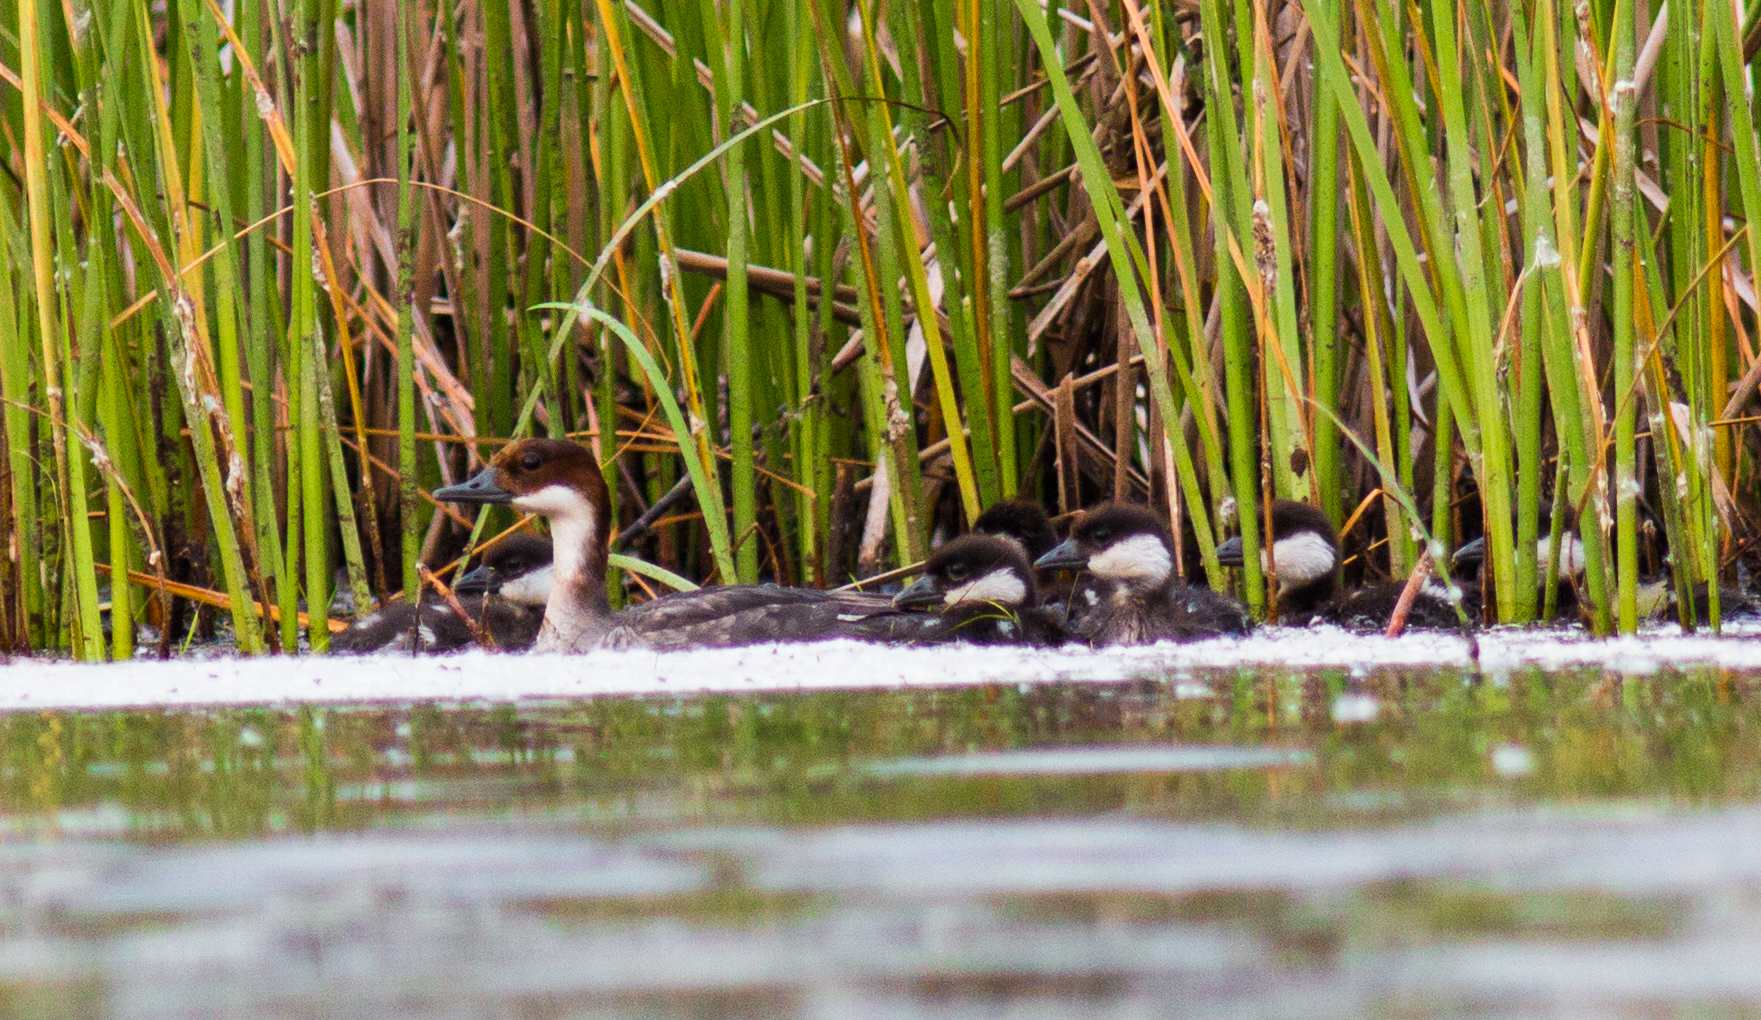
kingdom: Animalia
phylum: Chordata
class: Aves
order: Anseriformes
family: Anatidae
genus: Mergellus
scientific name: Mergellus albellus
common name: Smew
